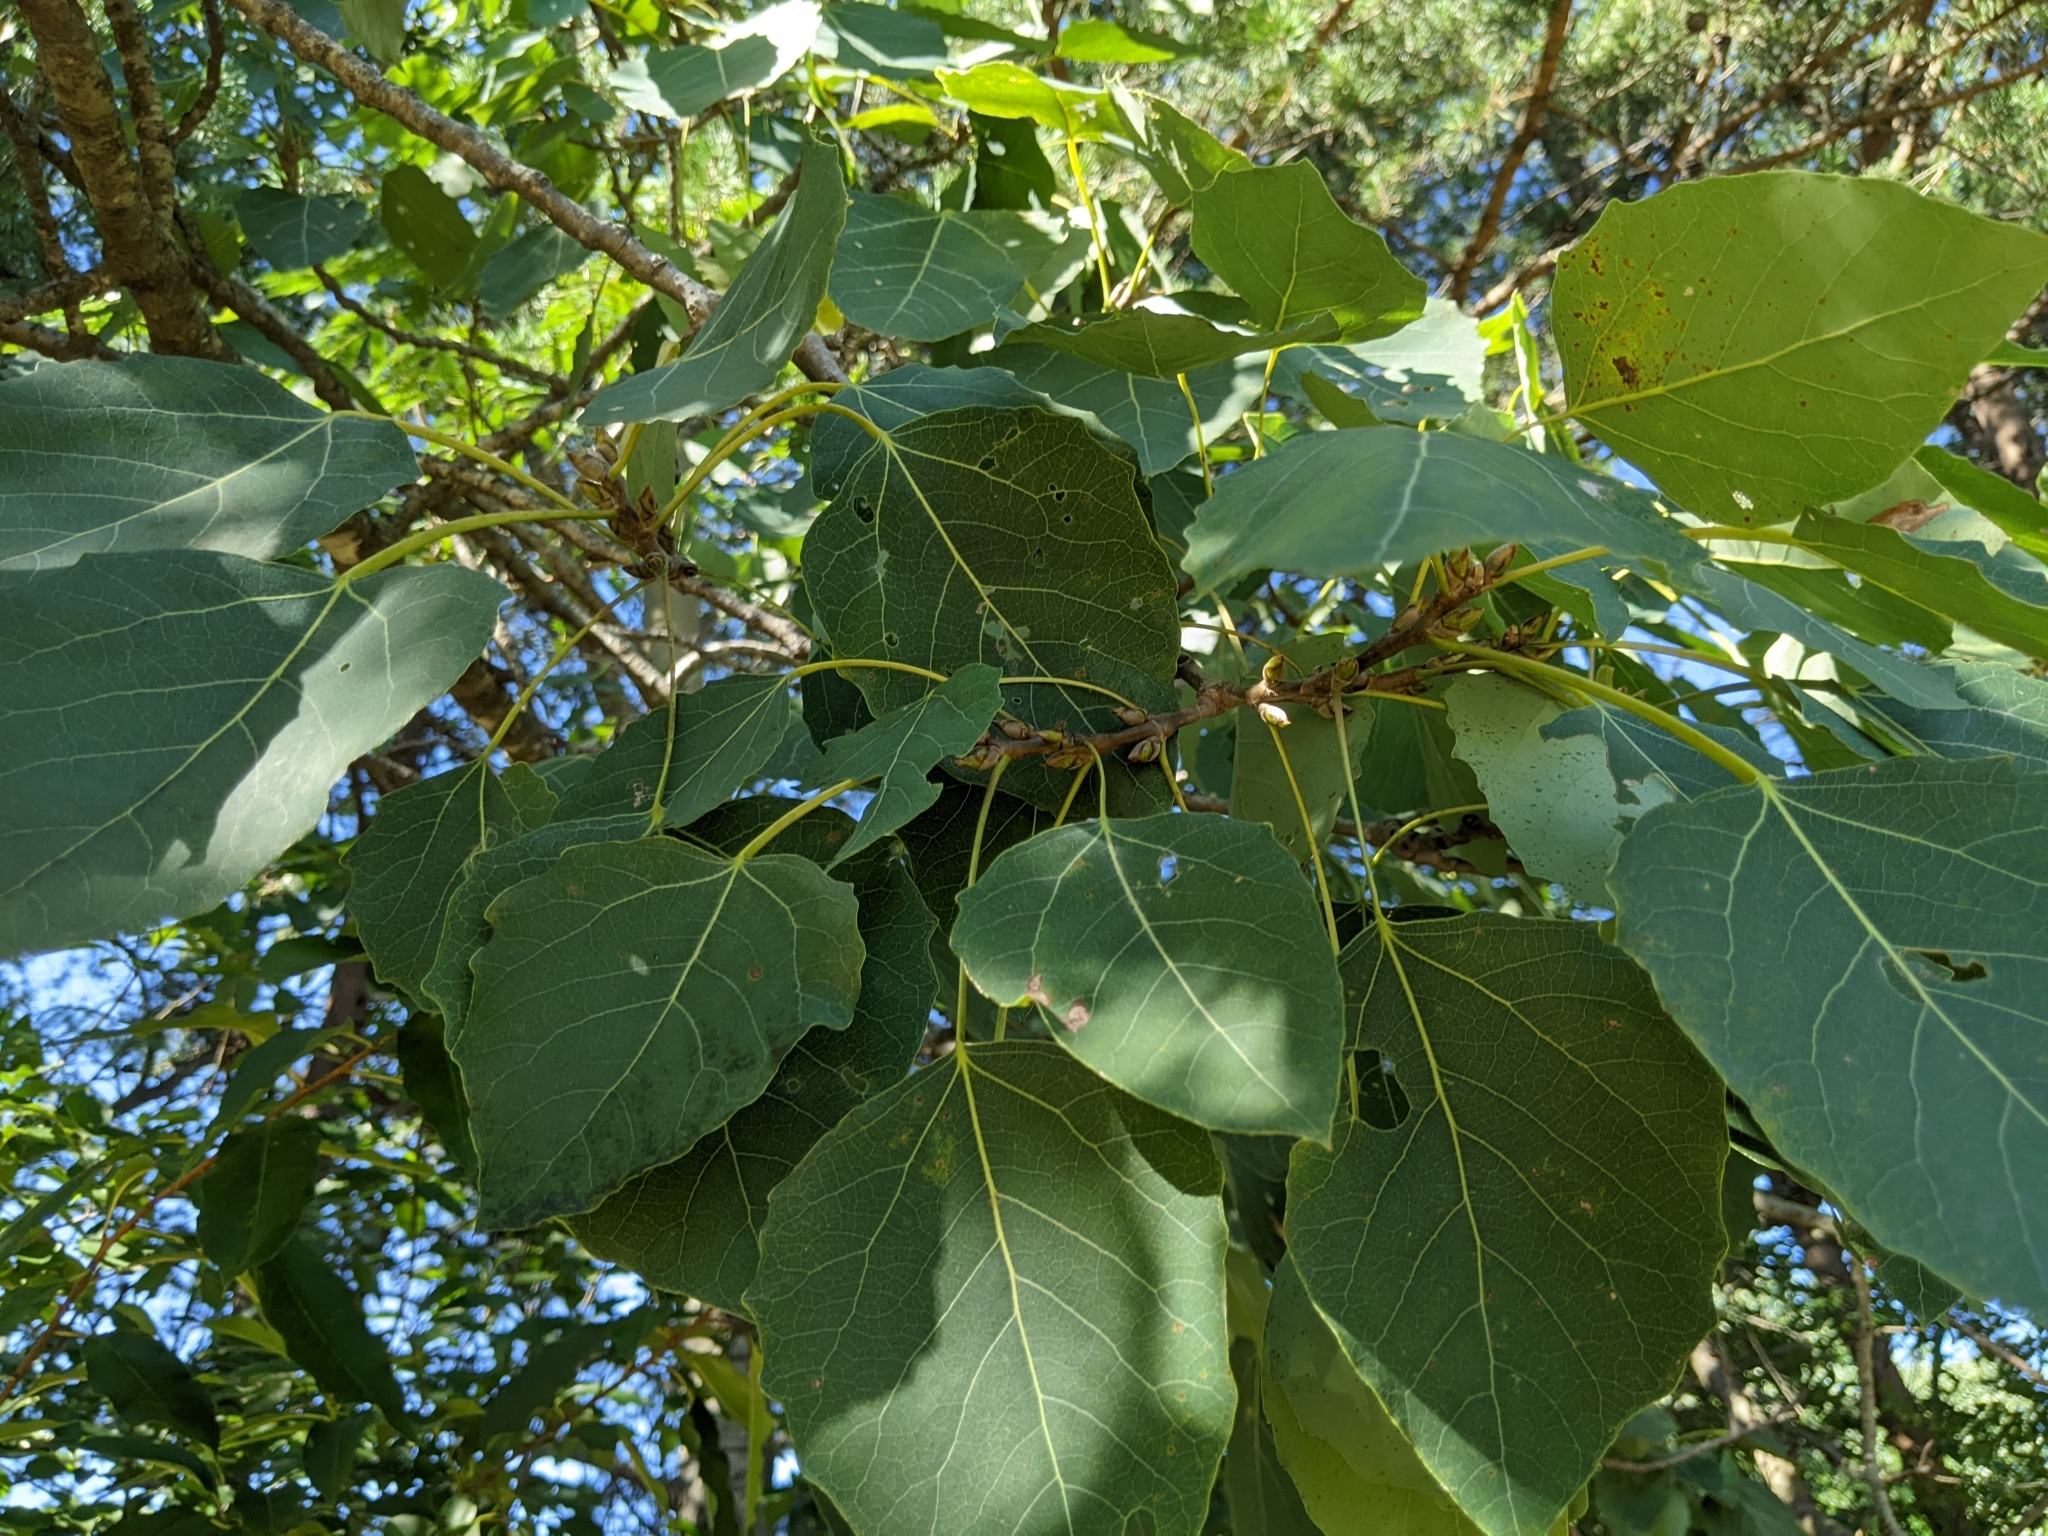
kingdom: Plantae
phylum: Tracheophyta
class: Magnoliopsida
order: Malpighiales
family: Salicaceae
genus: Populus
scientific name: Populus grandidentata
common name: Bigtooth aspen
